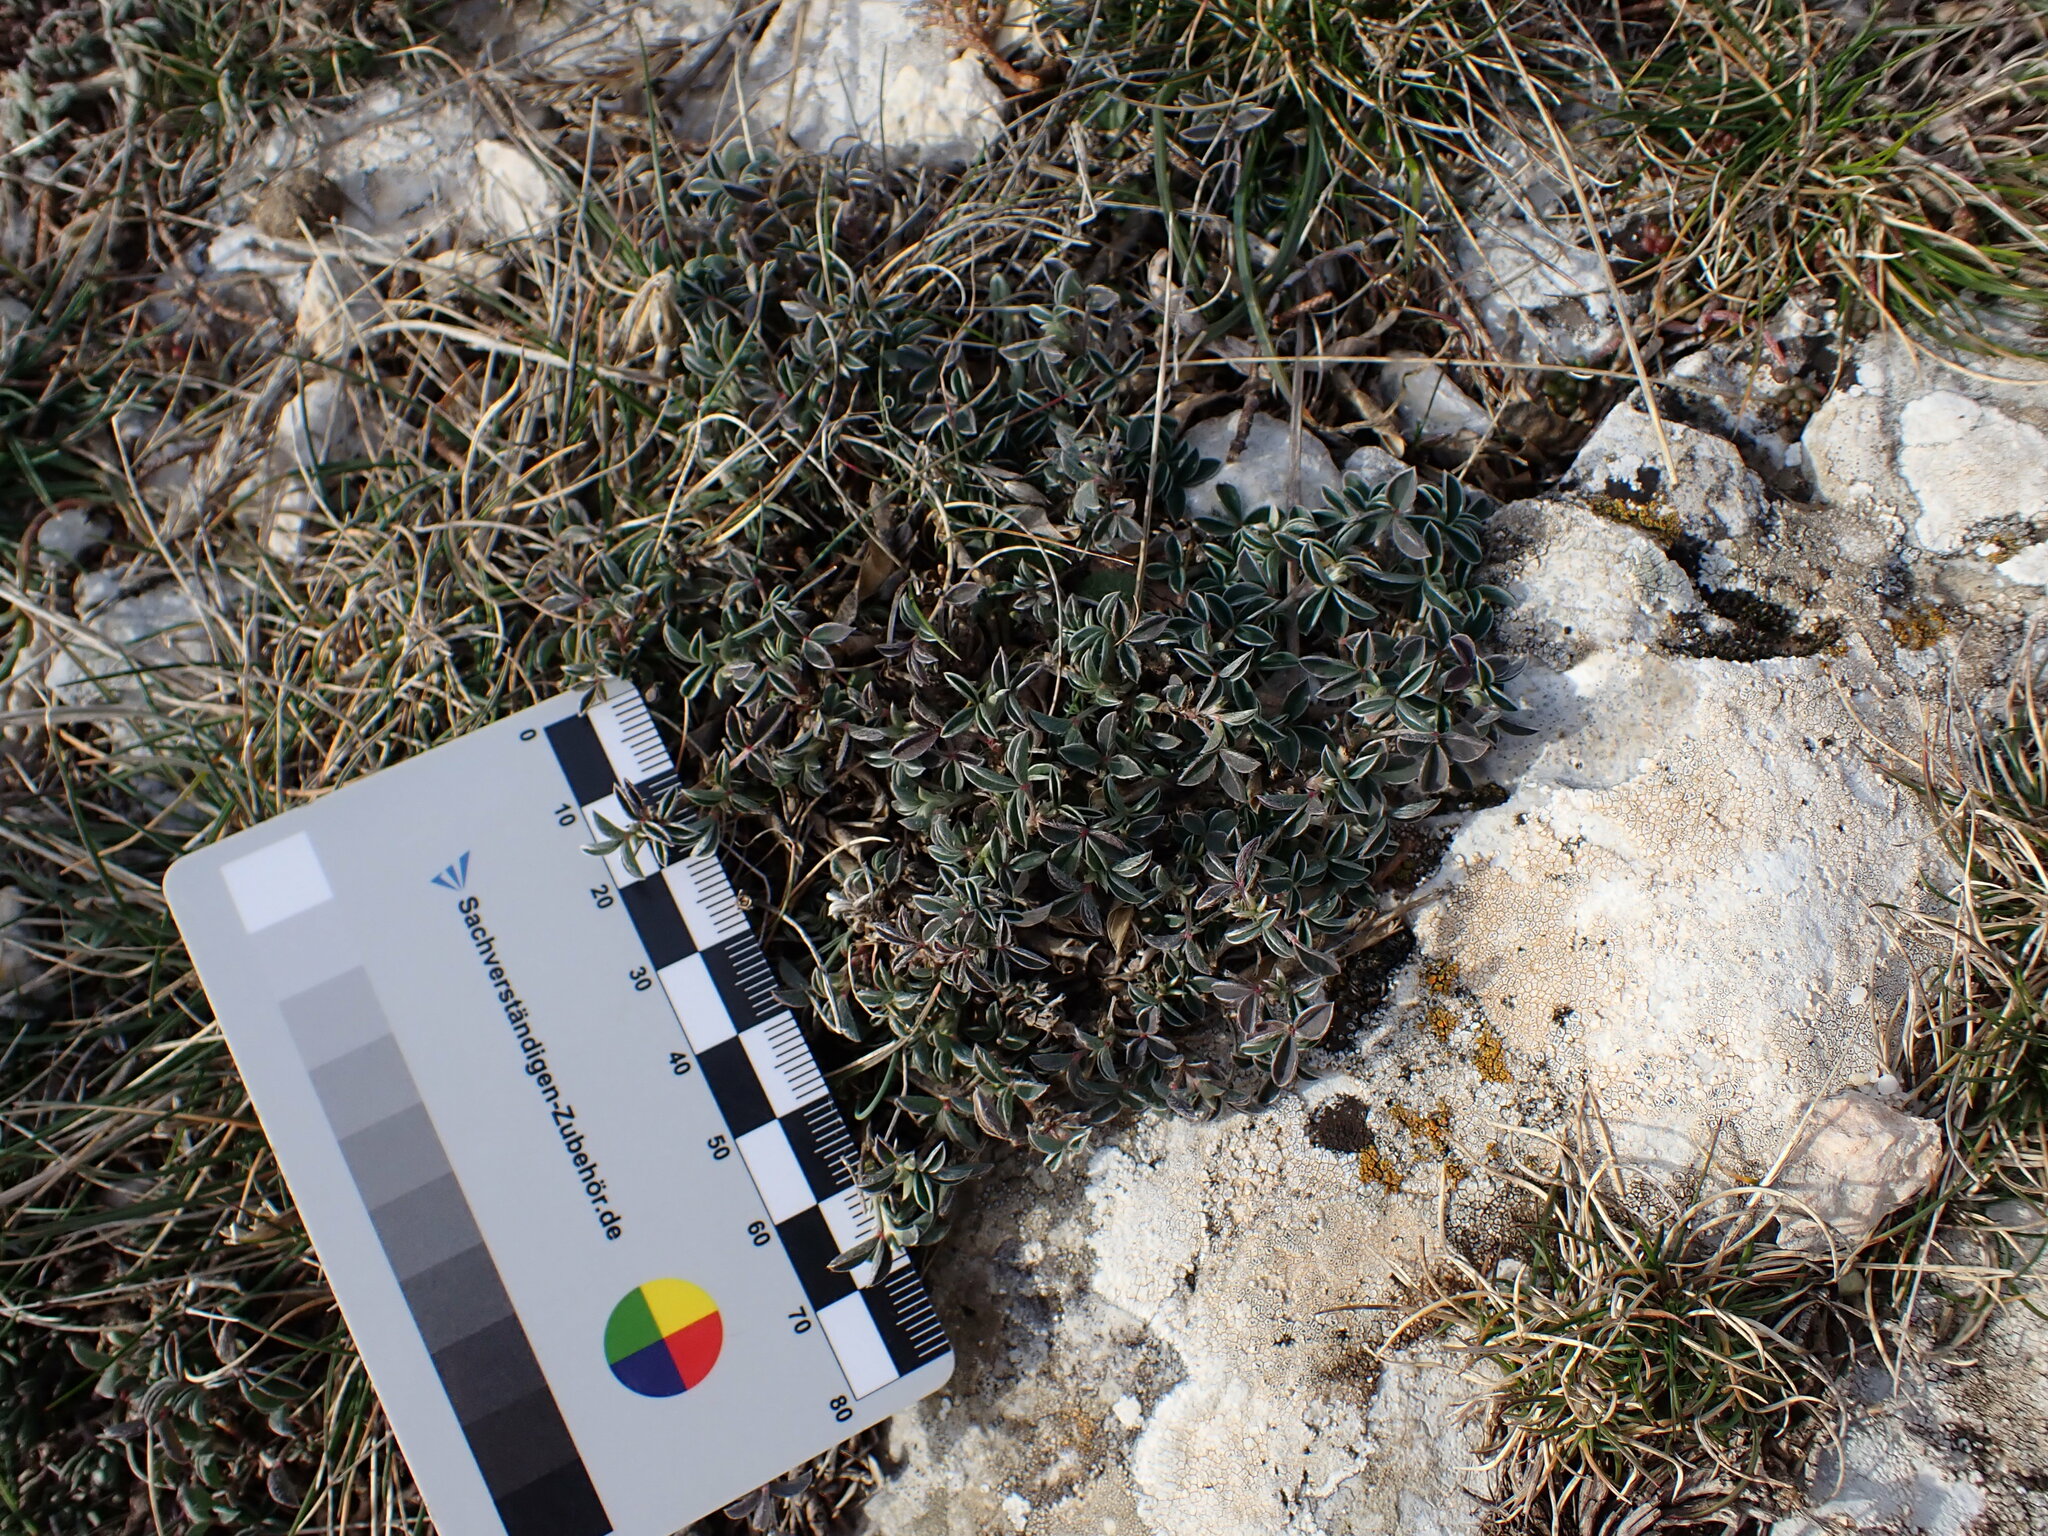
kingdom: Plantae
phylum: Tracheophyta
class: Magnoliopsida
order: Fabales
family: Fabaceae
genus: Argyrolobium
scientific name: Argyrolobium zanonii
